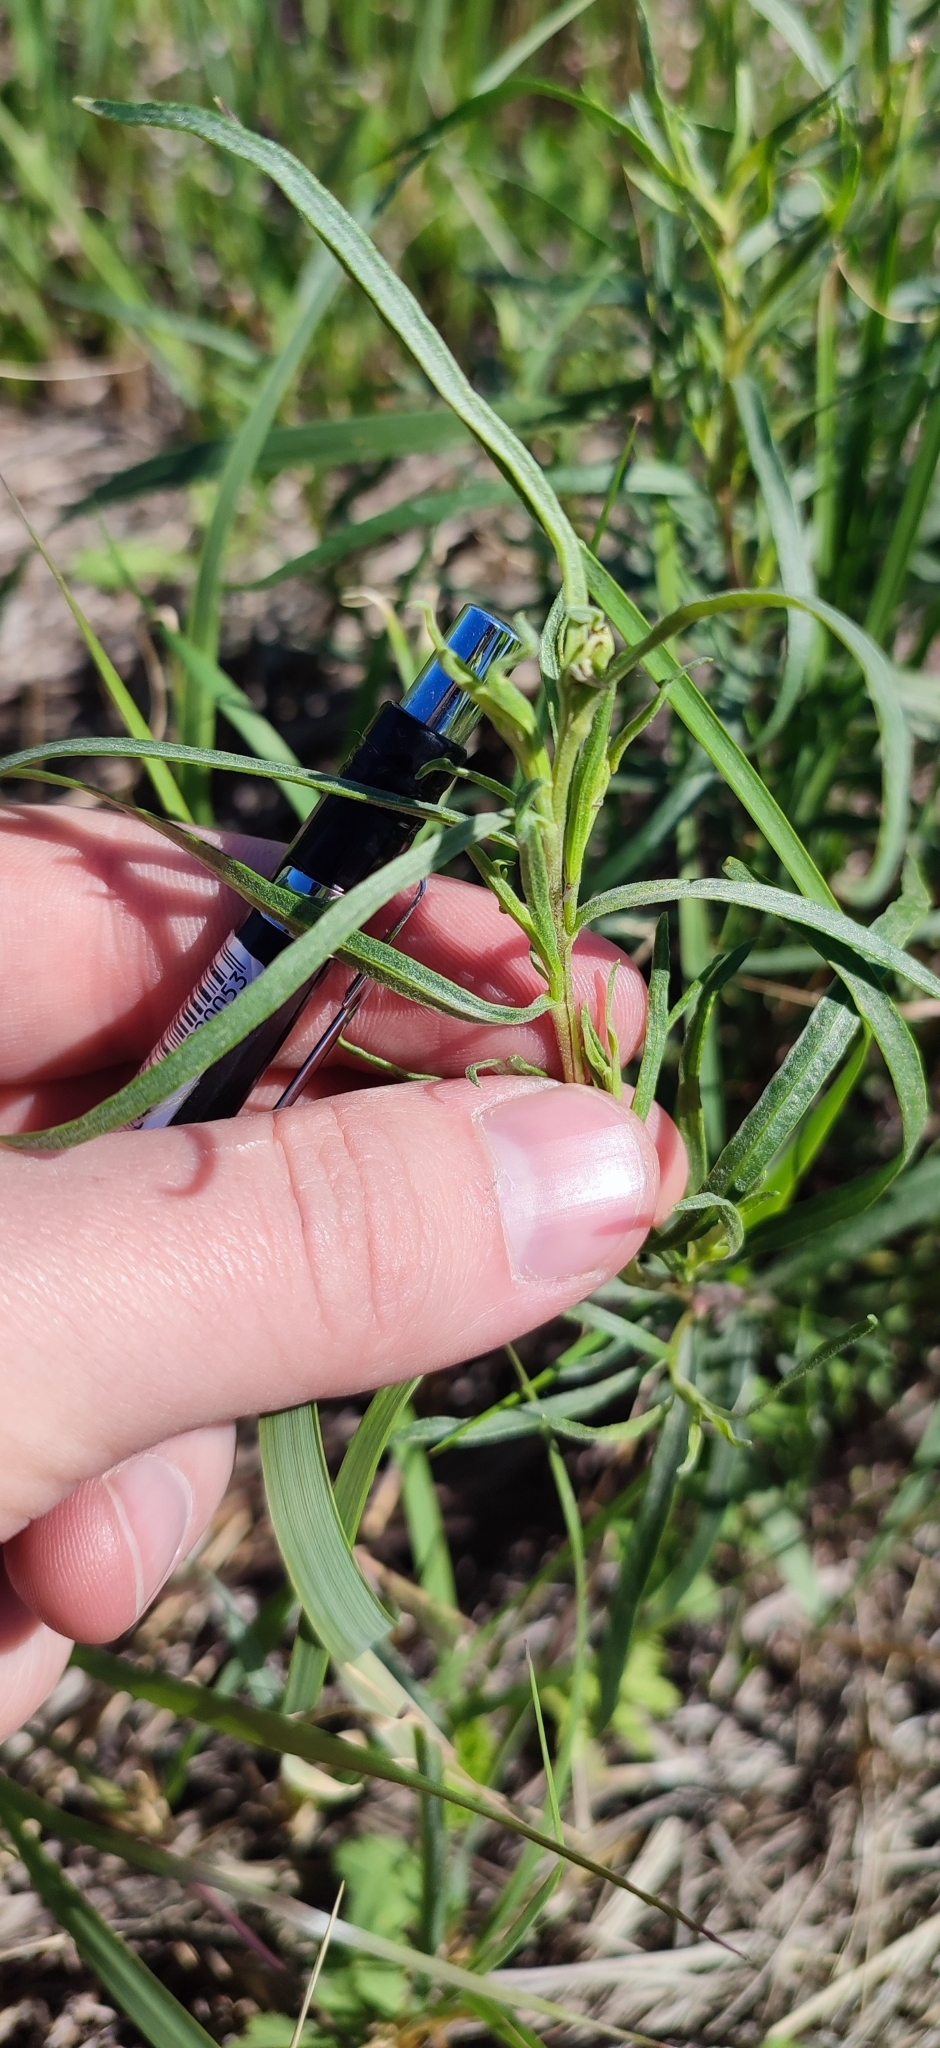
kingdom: Plantae
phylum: Tracheophyta
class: Magnoliopsida
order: Asterales
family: Asteraceae
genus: Artemisia
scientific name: Artemisia dracunculus
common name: Tarragon
